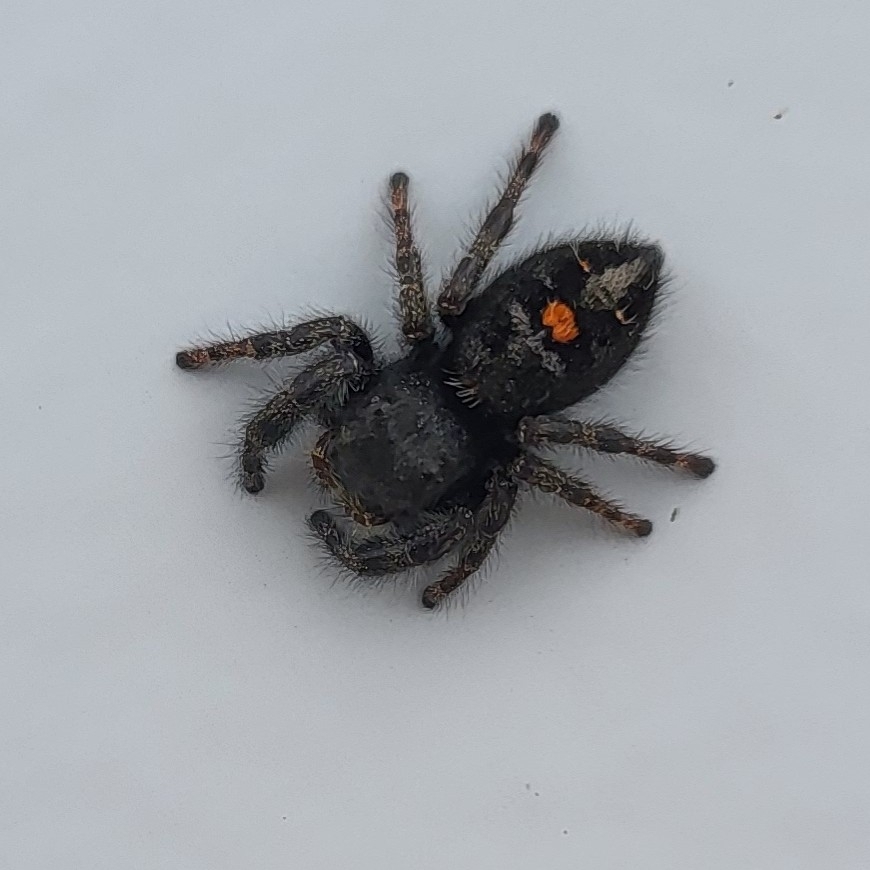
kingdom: Animalia
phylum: Arthropoda
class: Arachnida
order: Araneae
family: Salticidae
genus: Phidippus
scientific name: Phidippus audax
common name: Bold jumper
